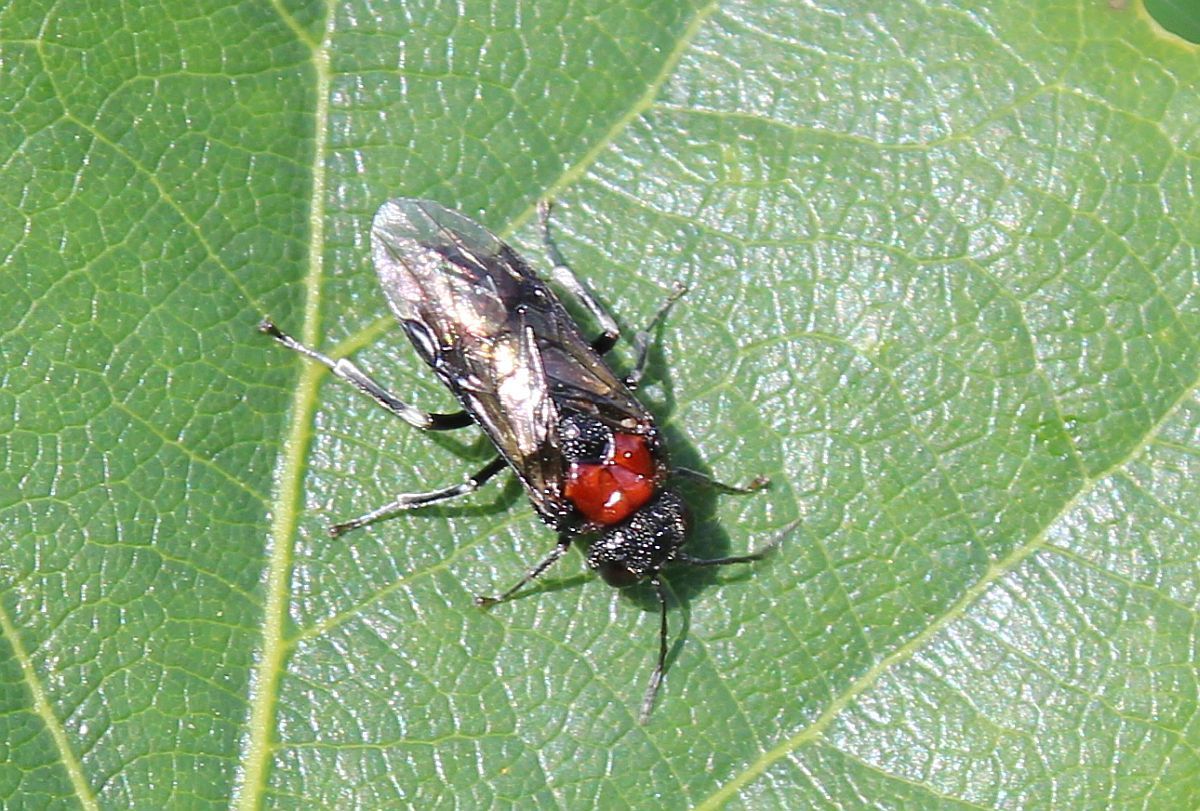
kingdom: Animalia
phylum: Arthropoda
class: Insecta
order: Hymenoptera
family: Tenthredinidae
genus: Eriocampa
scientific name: Eriocampa ovata
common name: Alder wooly sawfly
